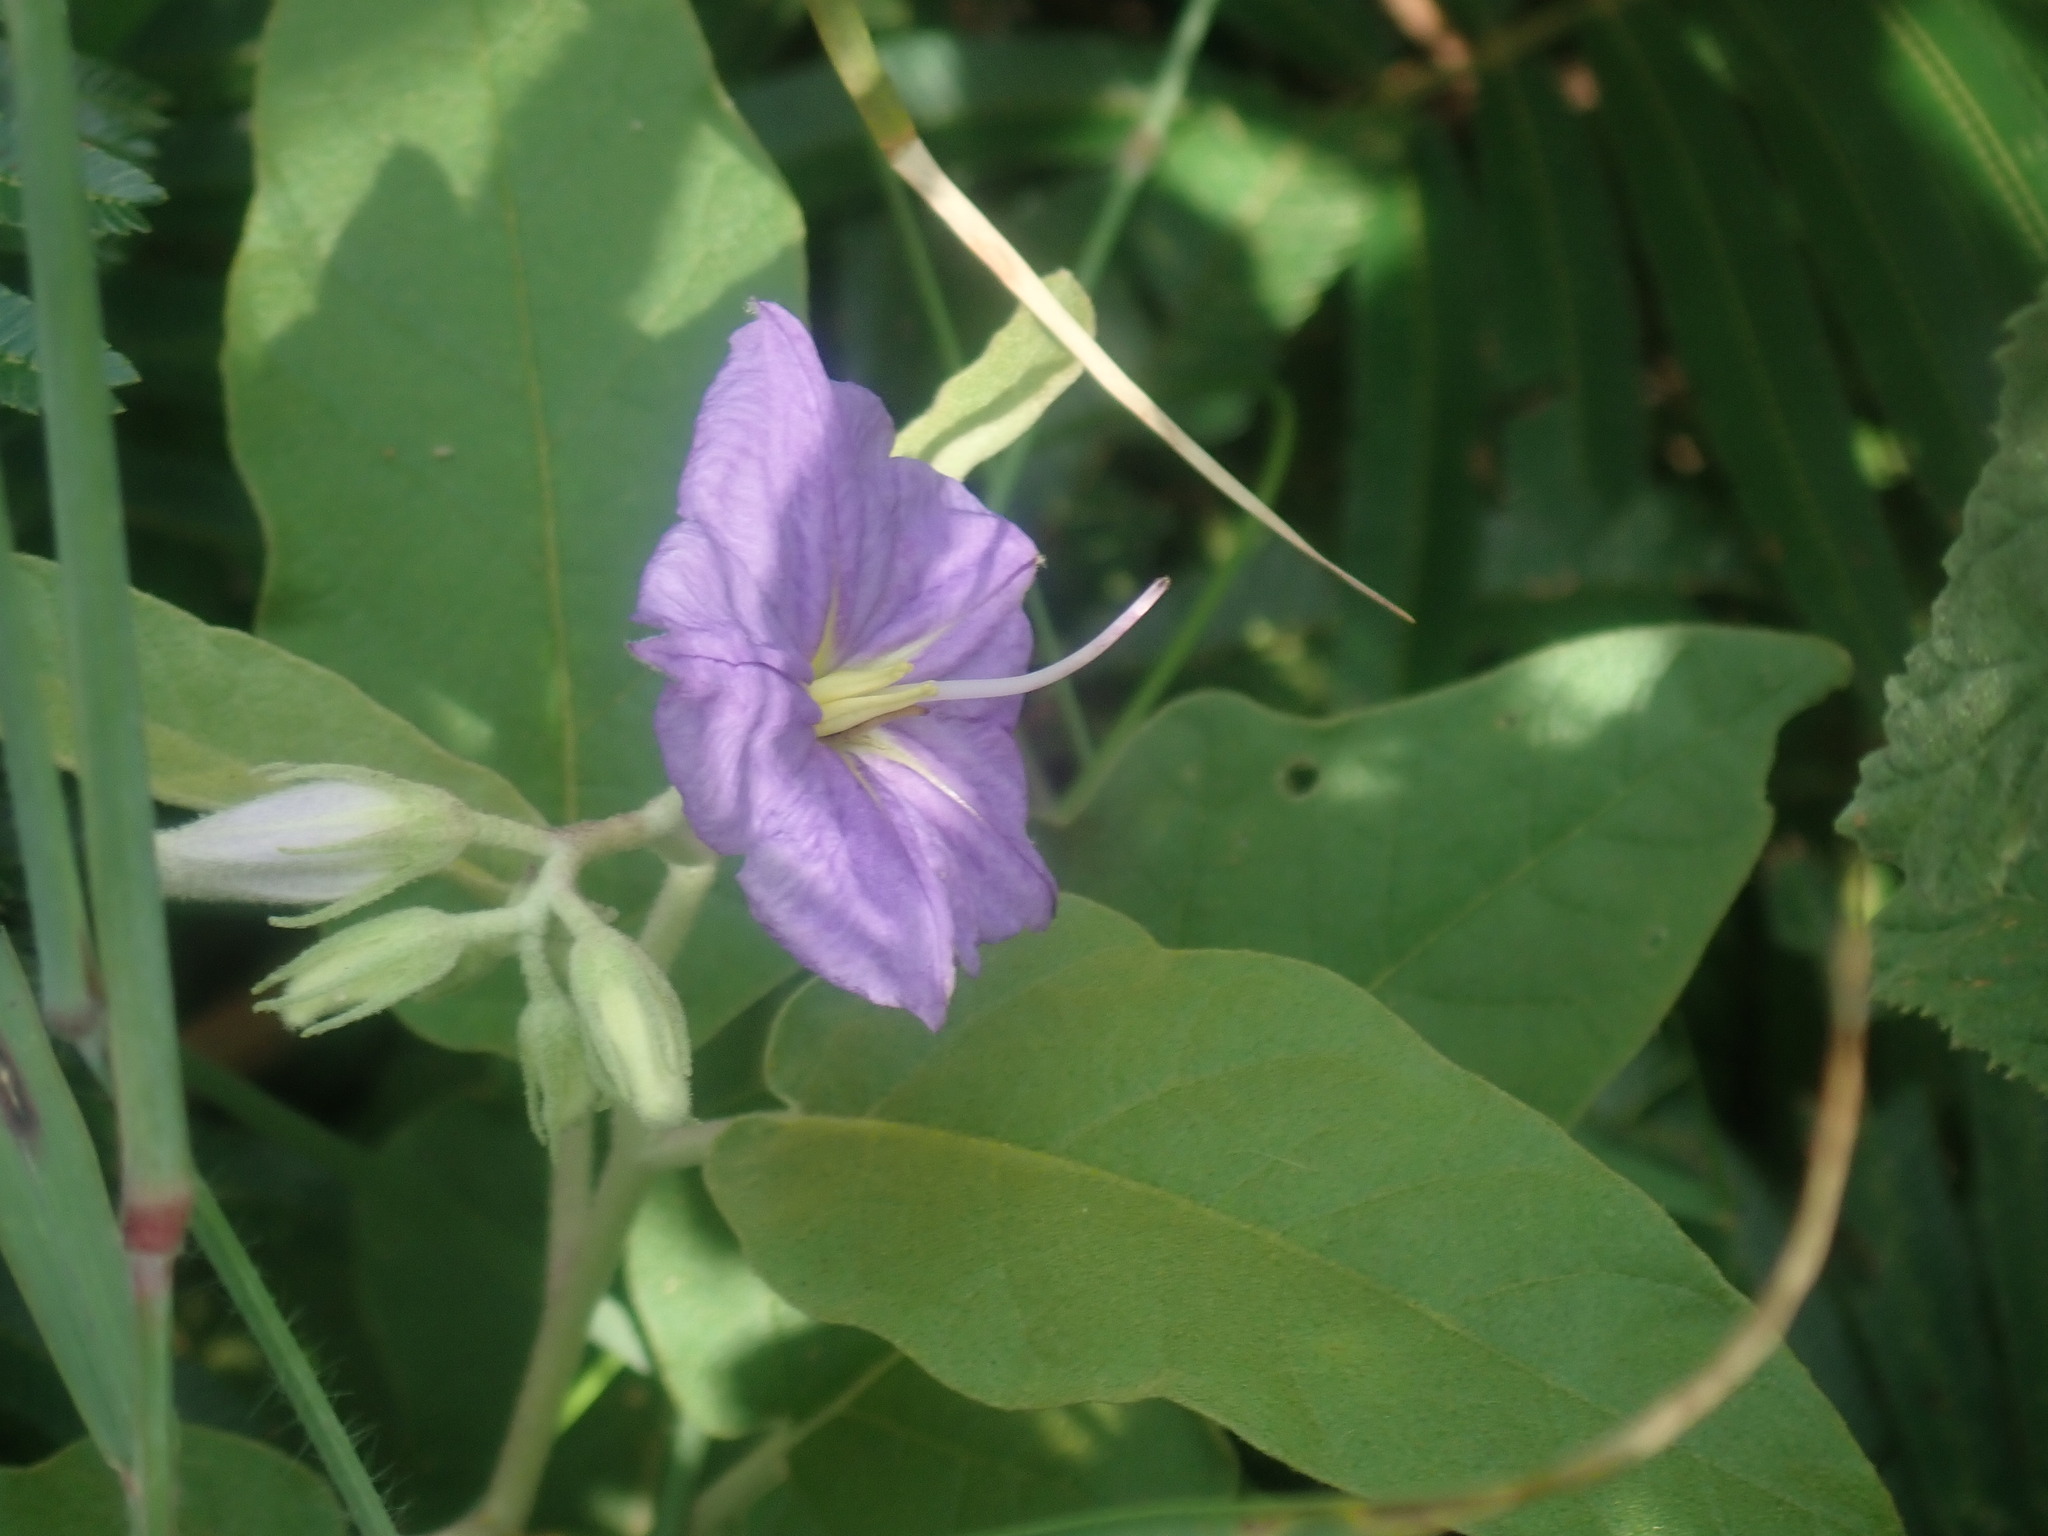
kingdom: Plantae
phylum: Tracheophyta
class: Magnoliopsida
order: Solanales
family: Solanaceae
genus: Solanum
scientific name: Solanum houstonii
